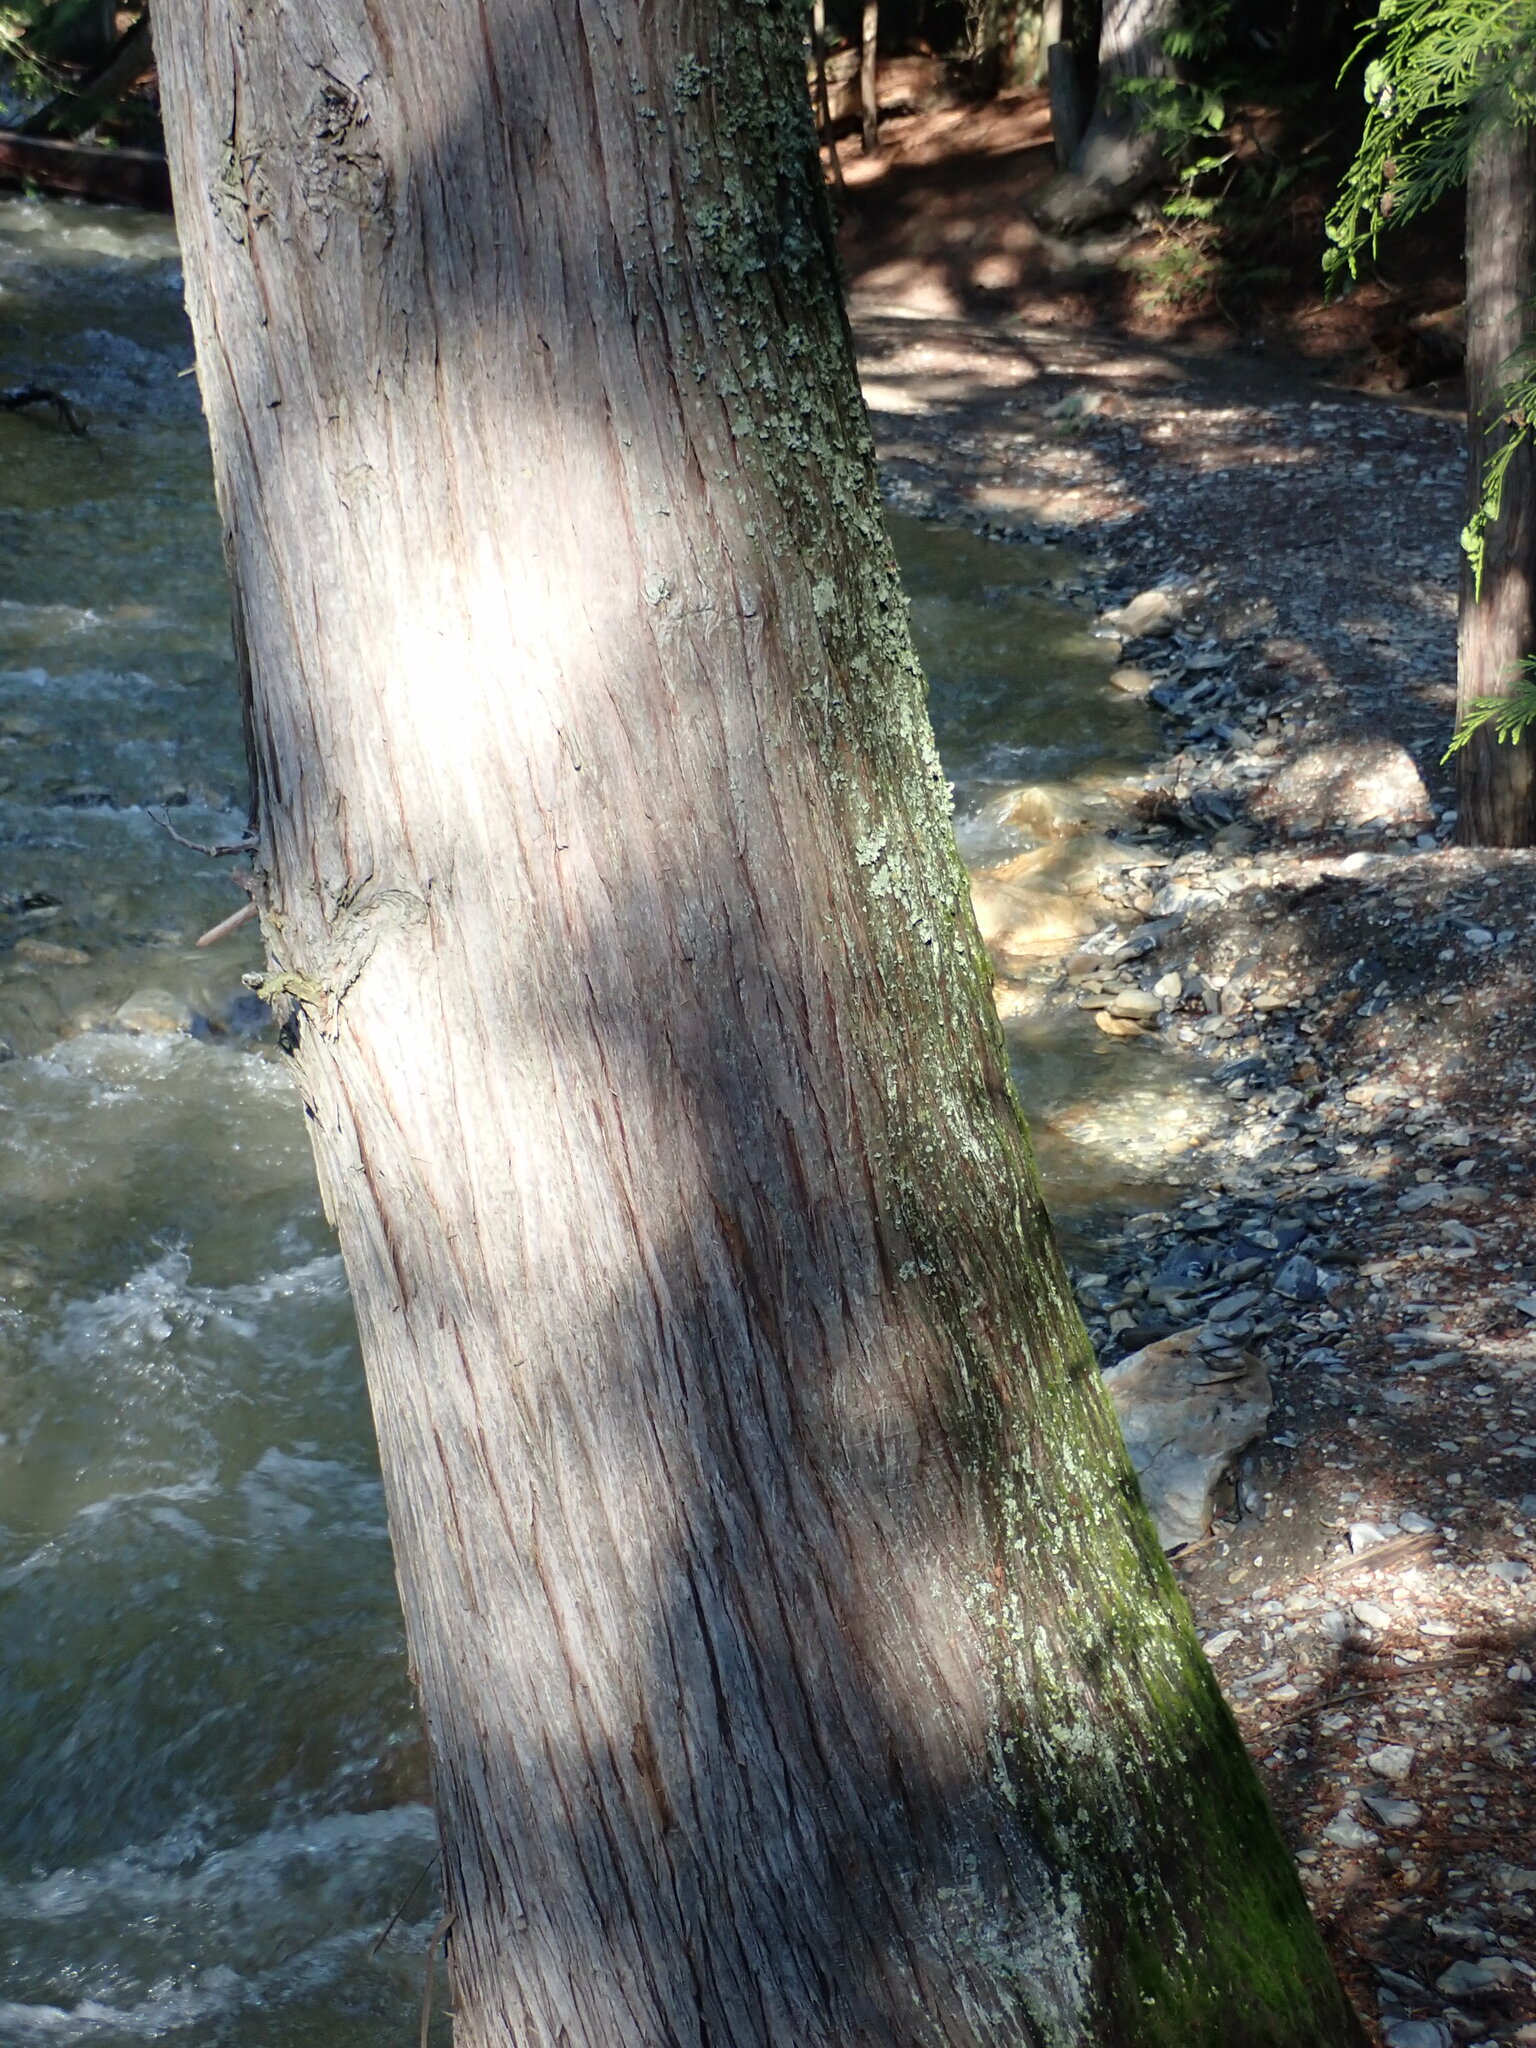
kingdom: Plantae
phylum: Tracheophyta
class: Pinopsida
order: Pinales
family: Cupressaceae
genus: Thuja
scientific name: Thuja plicata
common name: Western red-cedar
